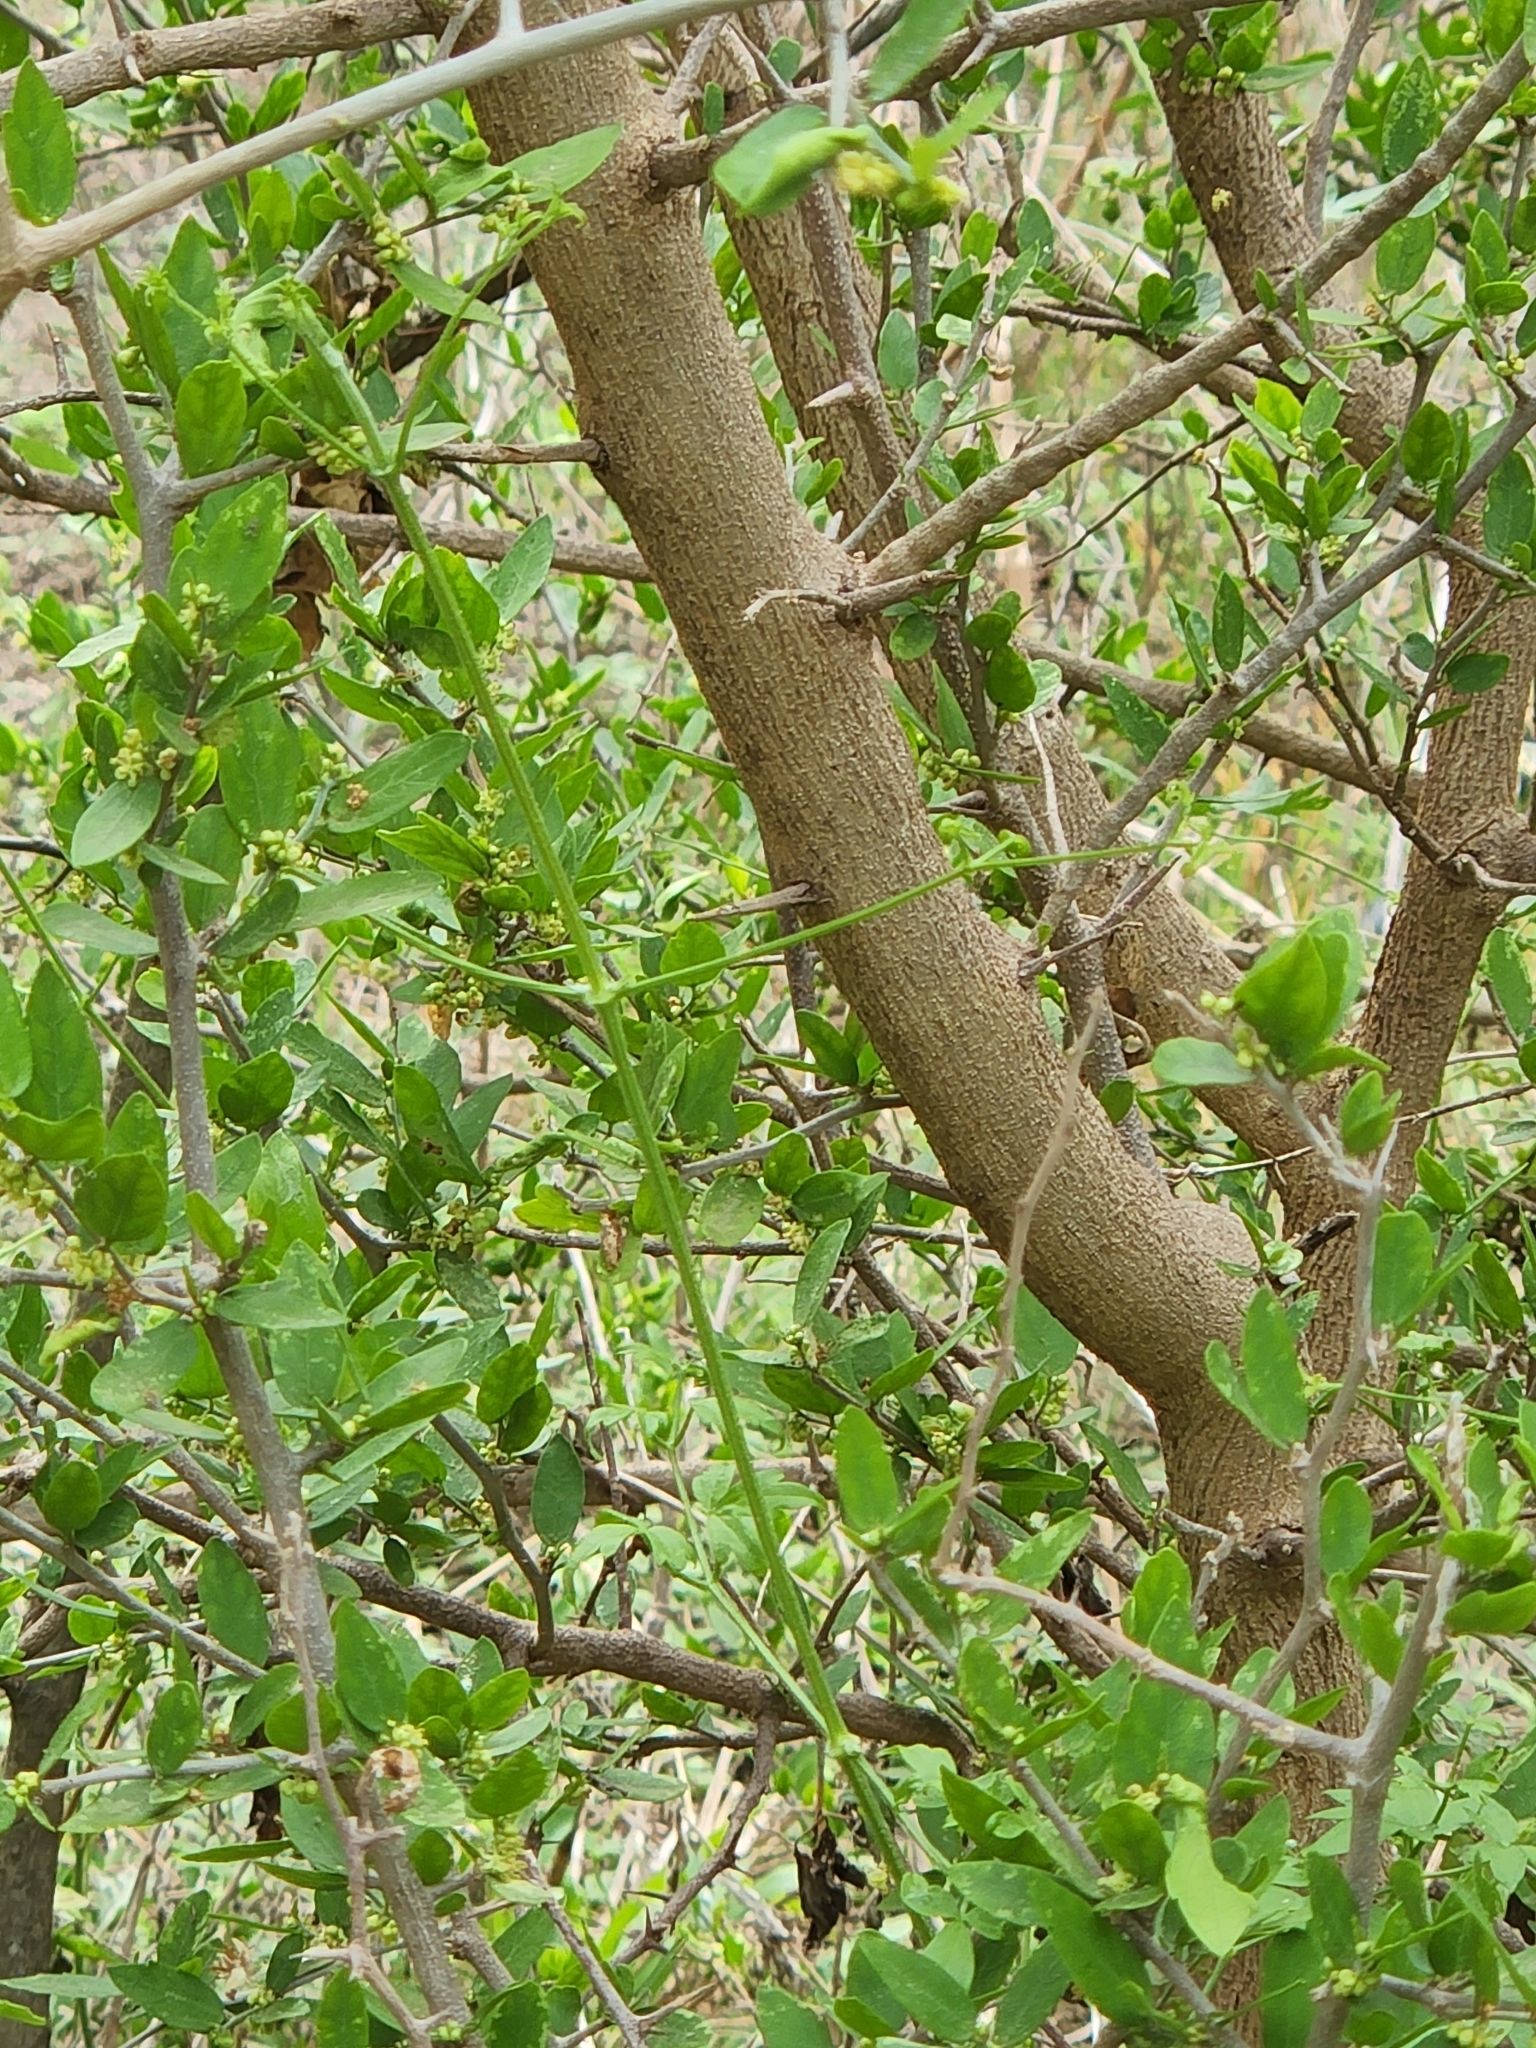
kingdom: Plantae
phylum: Tracheophyta
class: Magnoliopsida
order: Rosales
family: Cannabaceae
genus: Celtis
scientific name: Celtis pallida
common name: Desert hackberry
